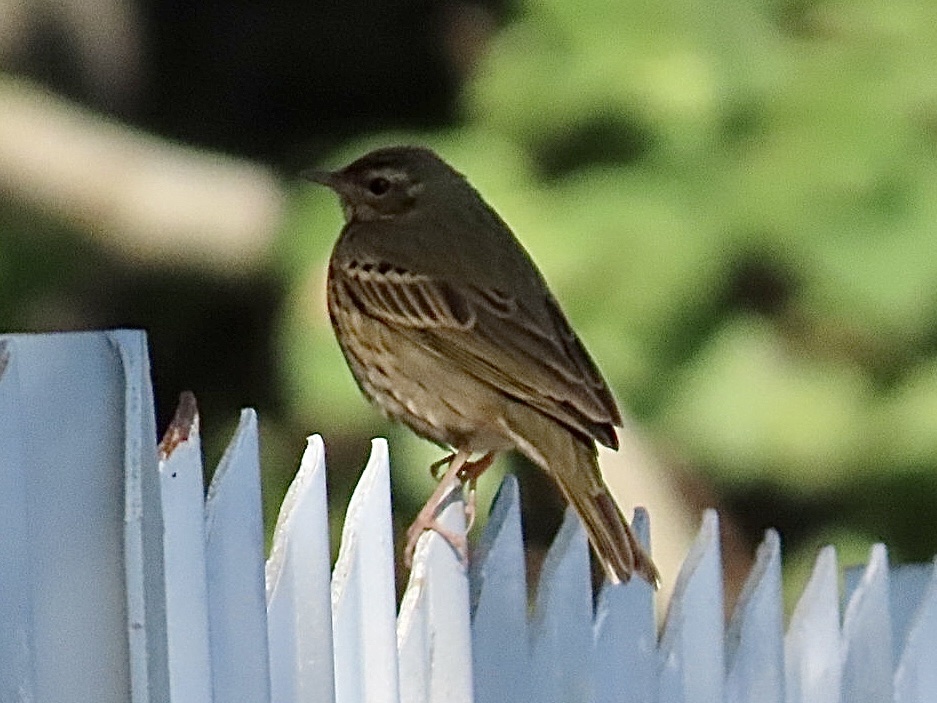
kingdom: Animalia
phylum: Chordata
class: Aves
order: Passeriformes
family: Motacillidae
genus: Anthus
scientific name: Anthus hodgsoni
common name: Olive-backed pipit
